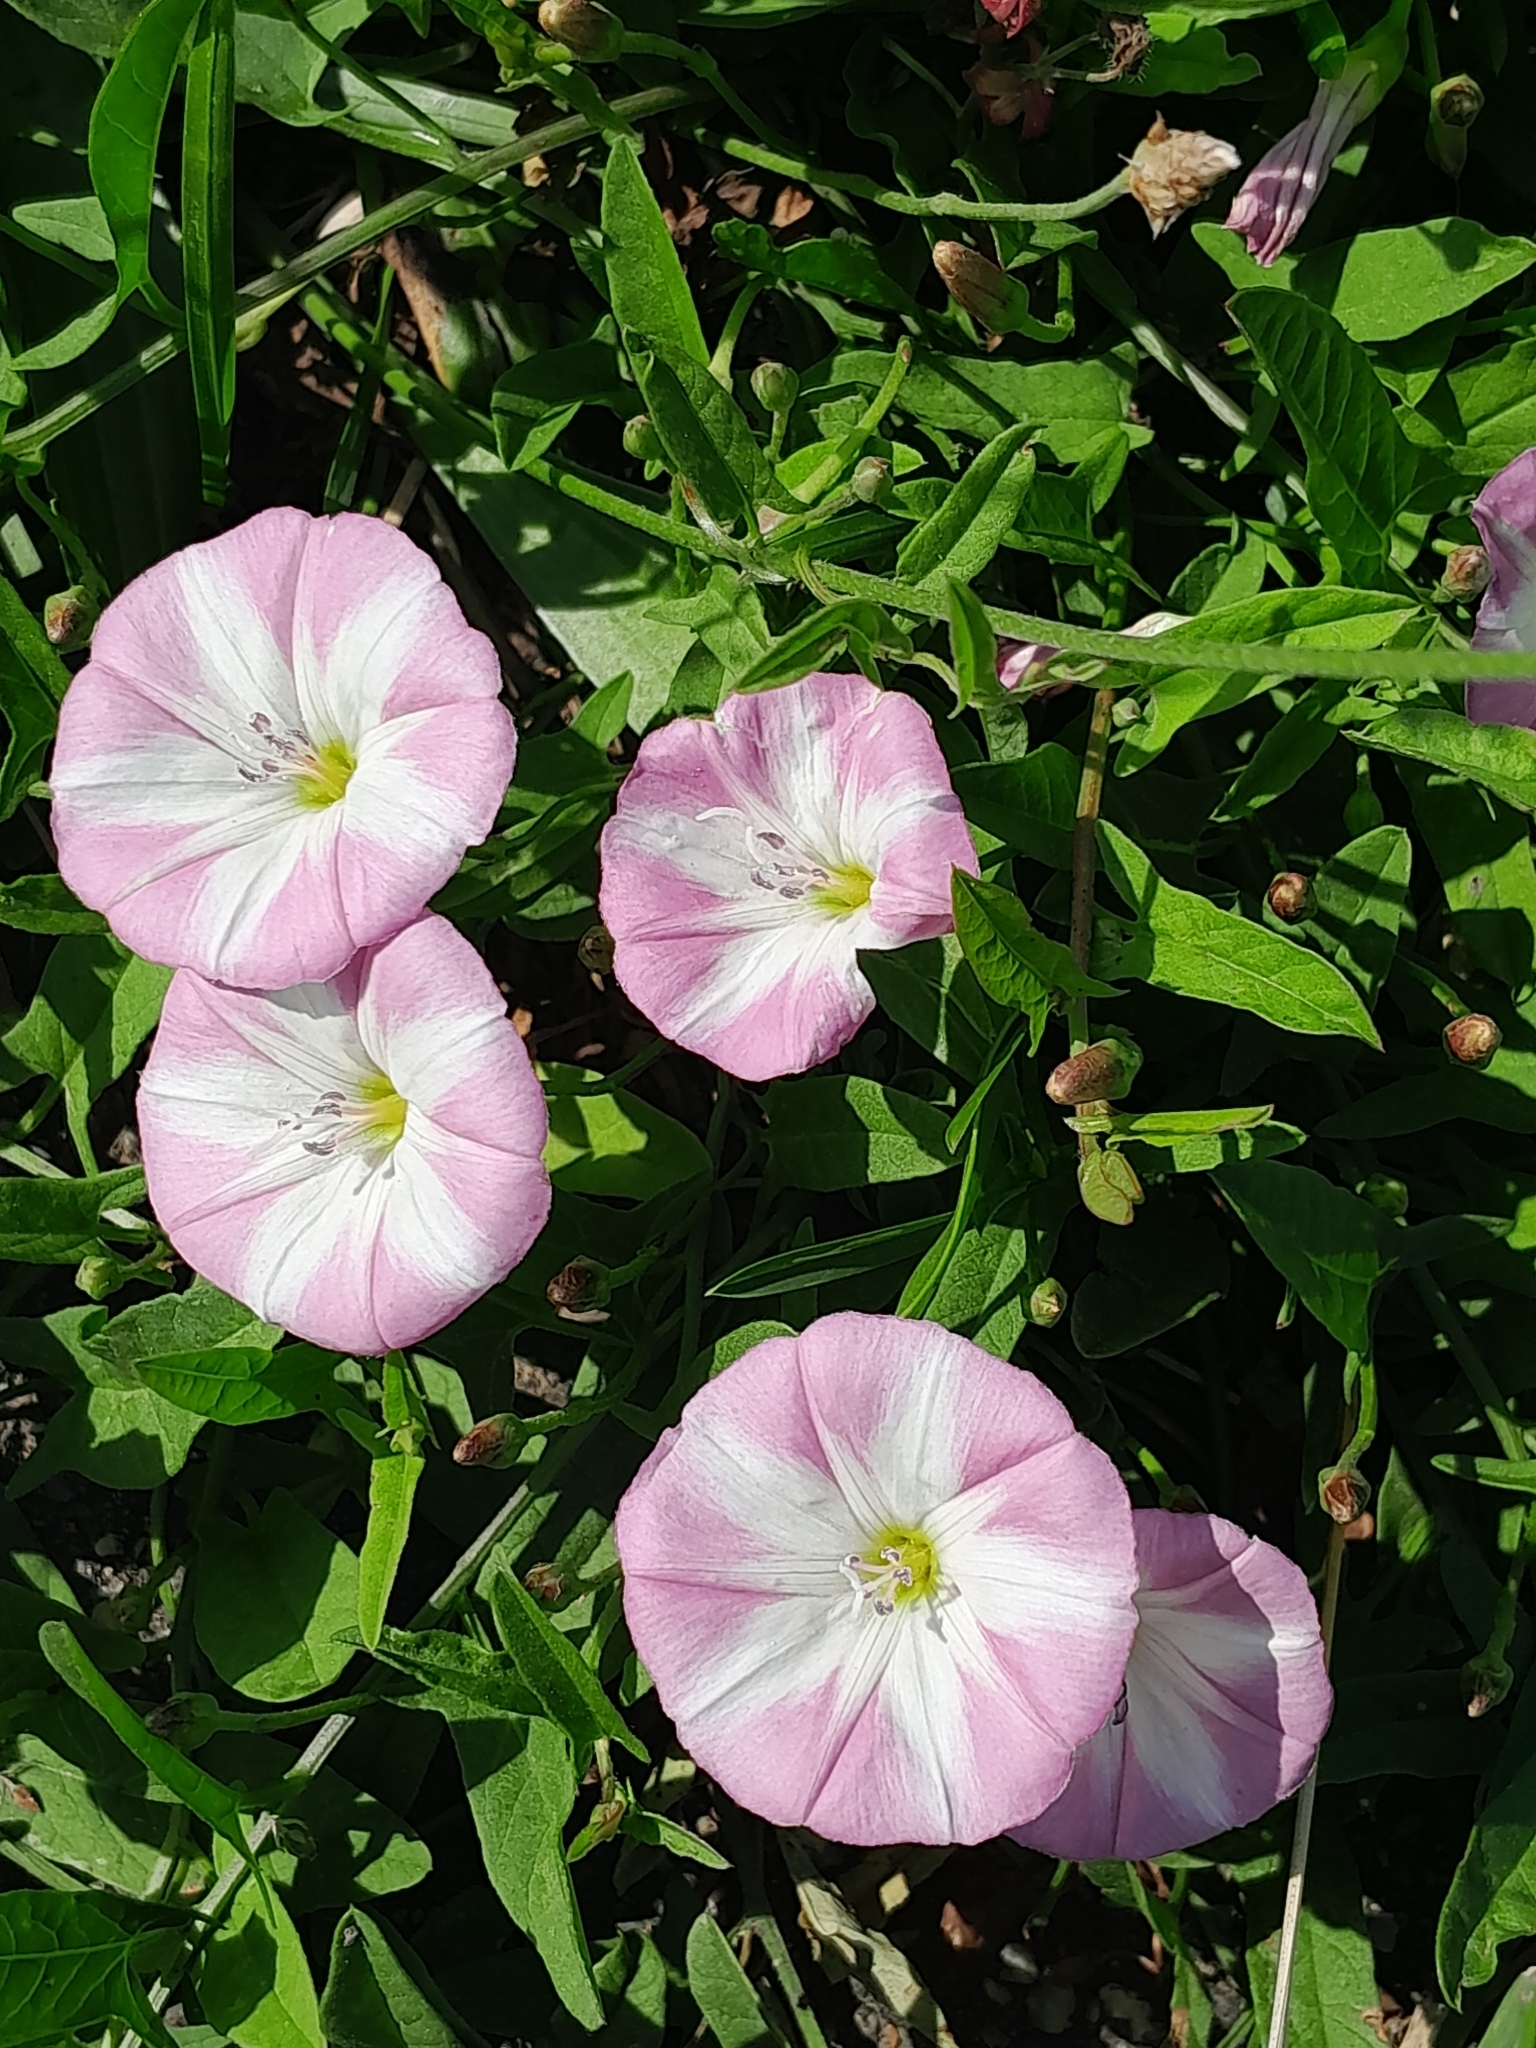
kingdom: Plantae
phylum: Tracheophyta
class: Magnoliopsida
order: Solanales
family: Convolvulaceae
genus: Convolvulus
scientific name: Convolvulus arvensis
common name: Field bindweed
